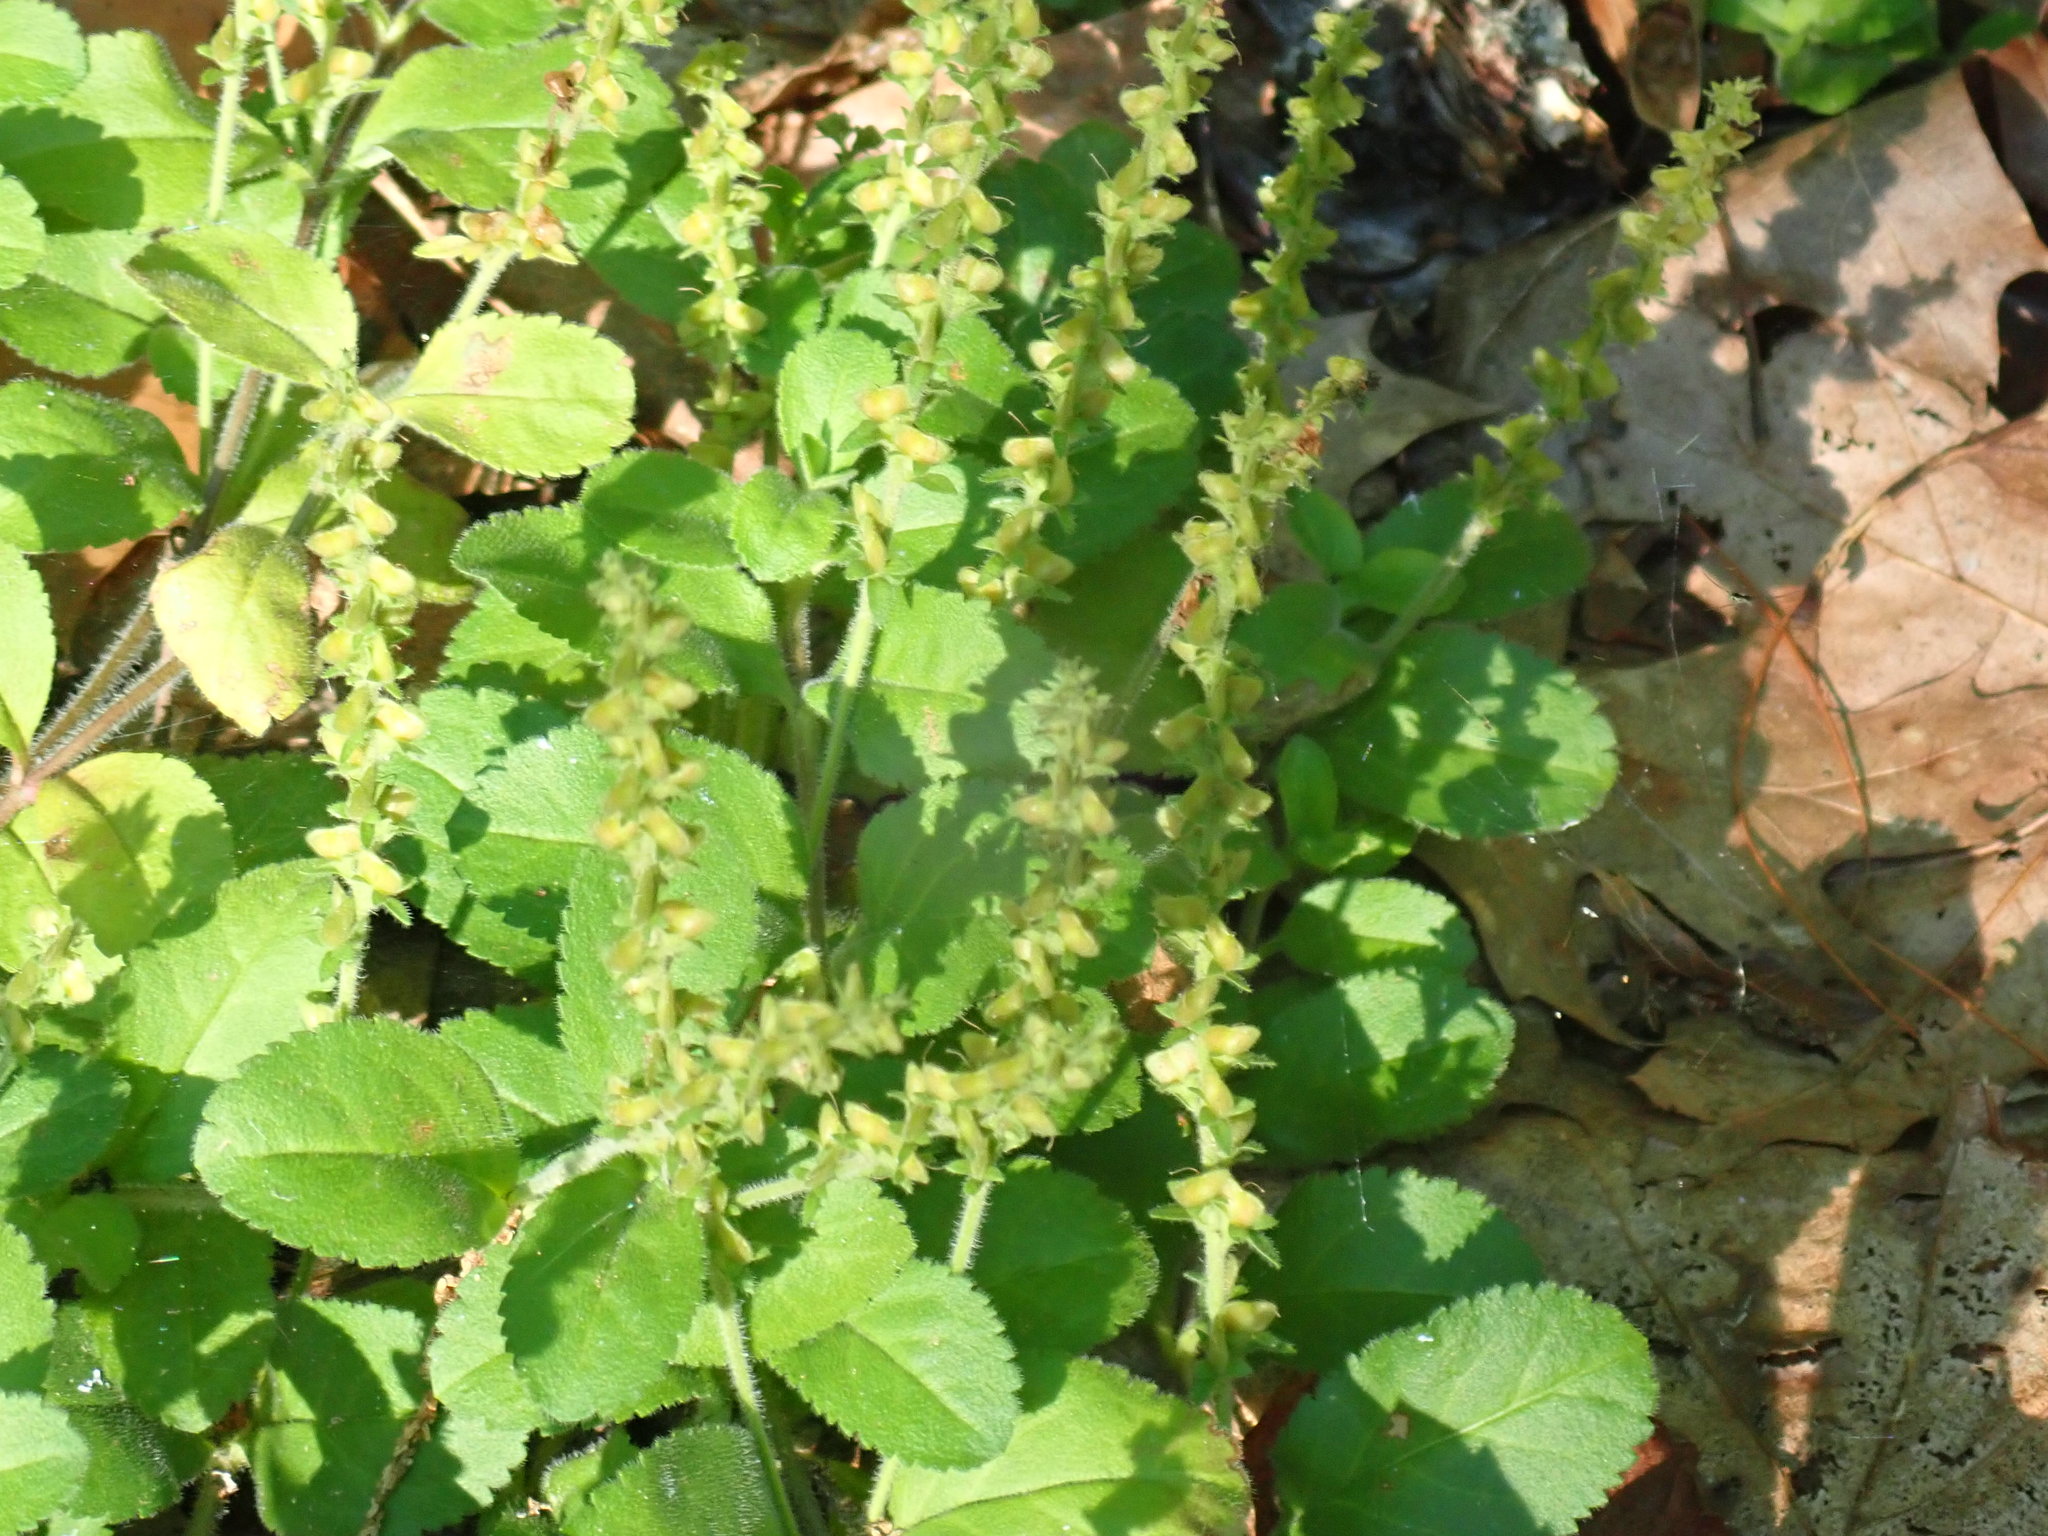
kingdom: Plantae
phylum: Tracheophyta
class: Magnoliopsida
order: Lamiales
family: Plantaginaceae
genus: Veronica
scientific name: Veronica officinalis
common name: Common speedwell
